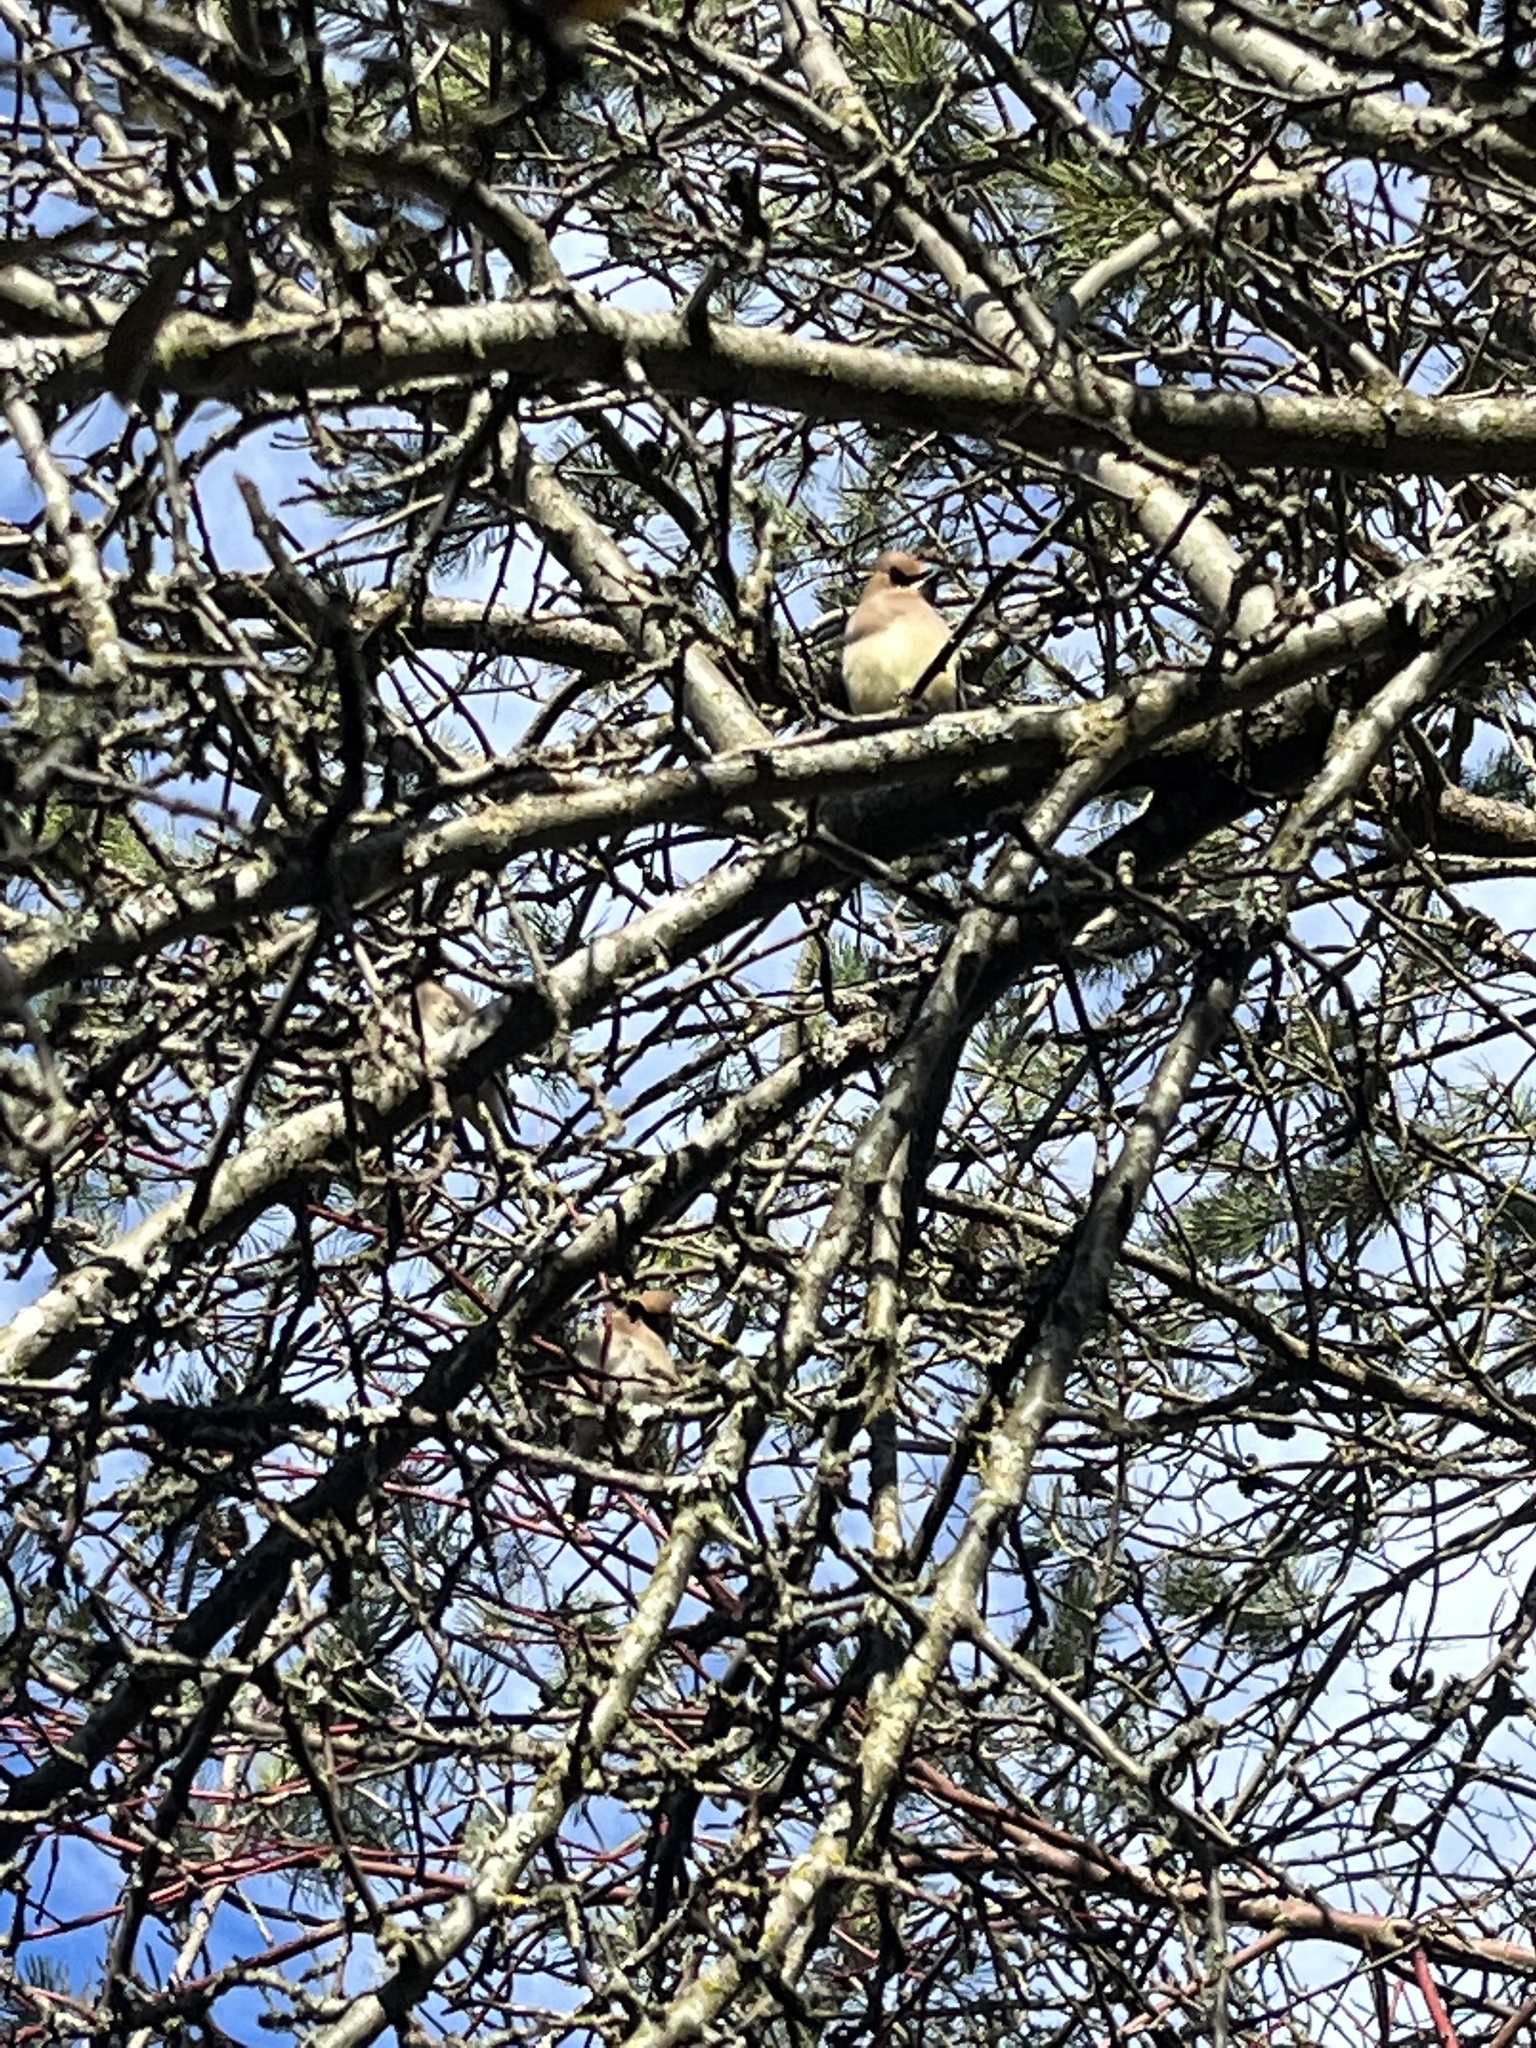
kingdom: Animalia
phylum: Chordata
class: Aves
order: Passeriformes
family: Bombycillidae
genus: Bombycilla
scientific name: Bombycilla cedrorum
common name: Cedar waxwing
